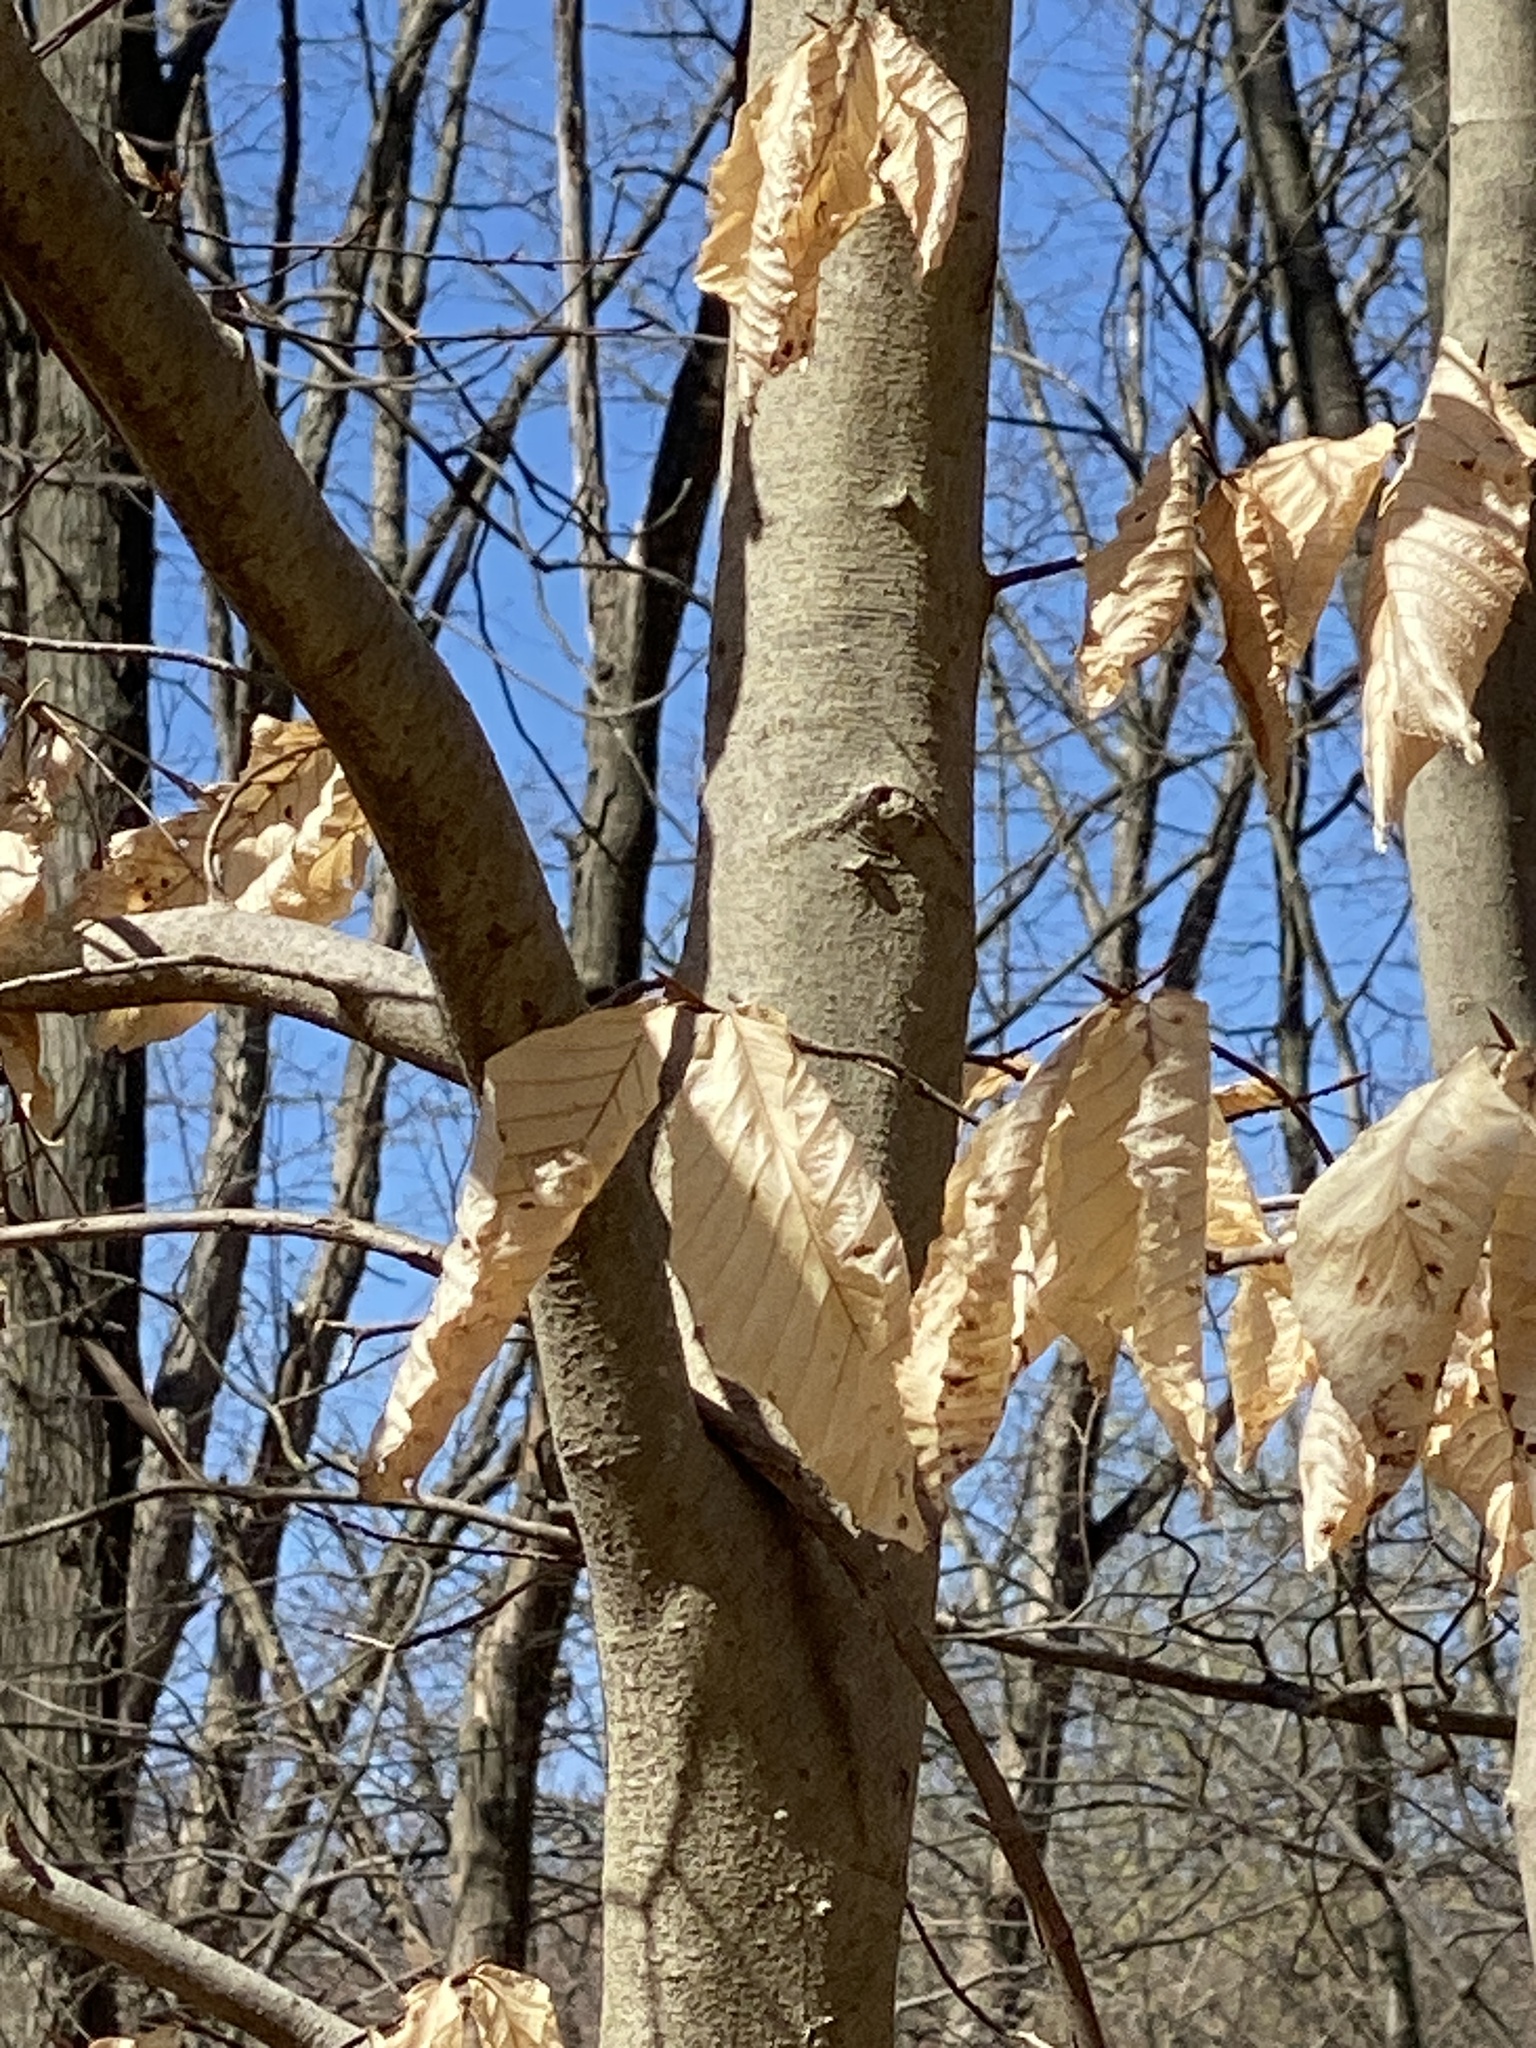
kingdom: Plantae
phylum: Tracheophyta
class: Magnoliopsida
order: Fagales
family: Fagaceae
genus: Fagus
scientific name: Fagus grandifolia
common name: American beech
